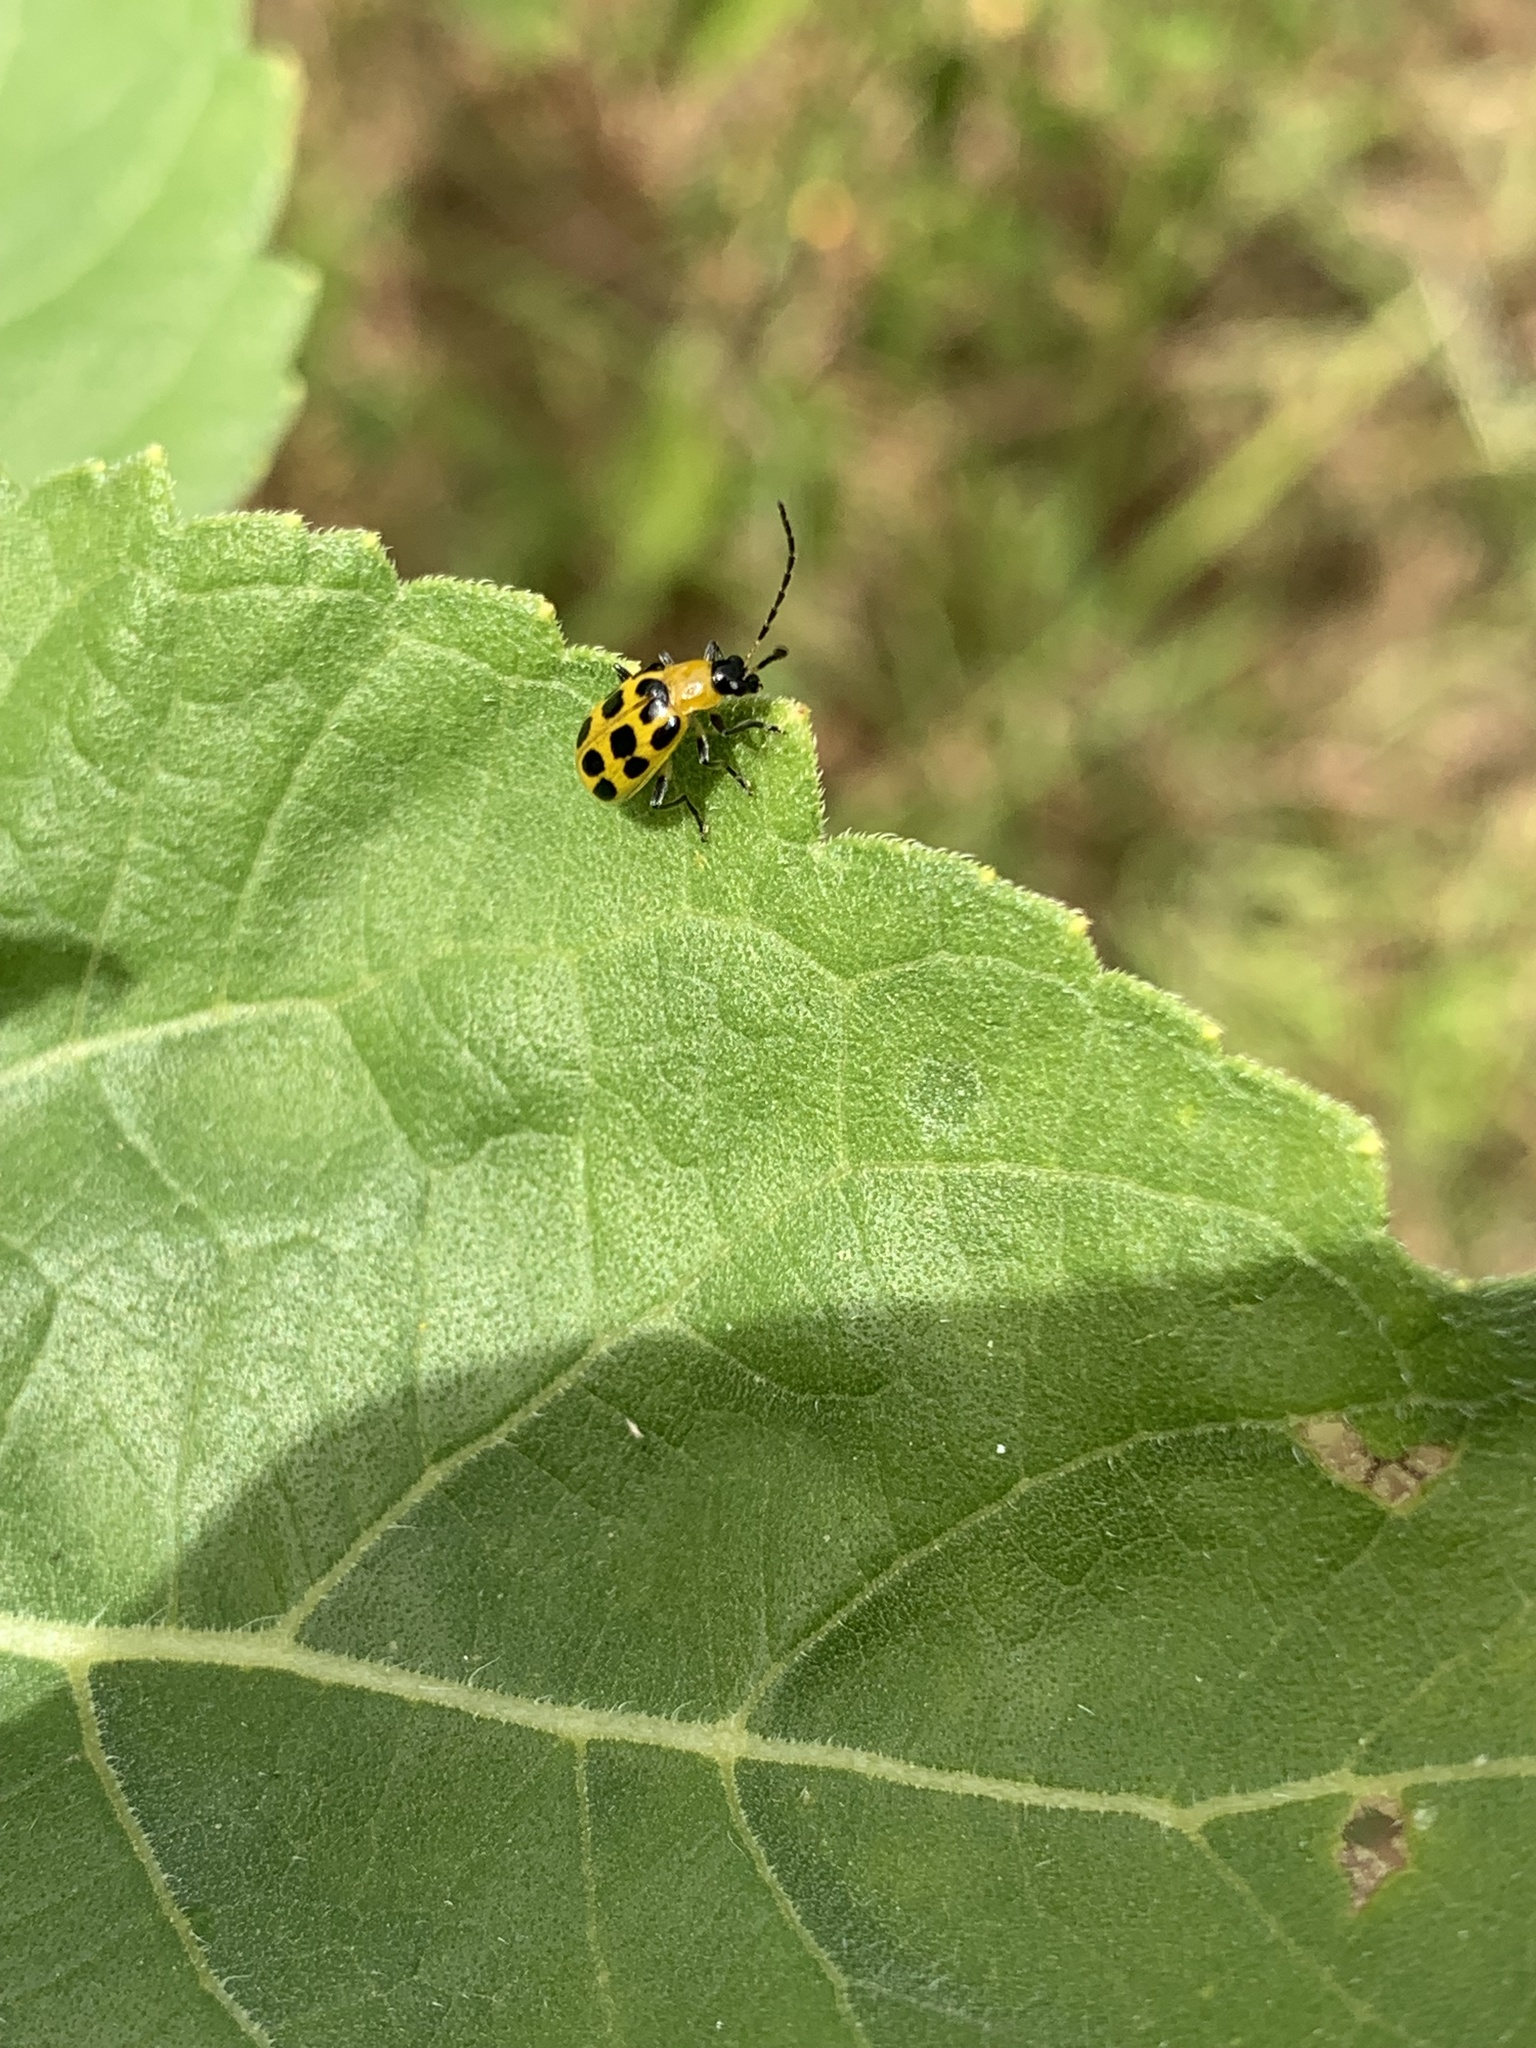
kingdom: Animalia
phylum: Arthropoda
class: Insecta
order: Coleoptera
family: Chrysomelidae
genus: Diabrotica
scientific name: Diabrotica undecimpunctata
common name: Spotted cucumber beetle
